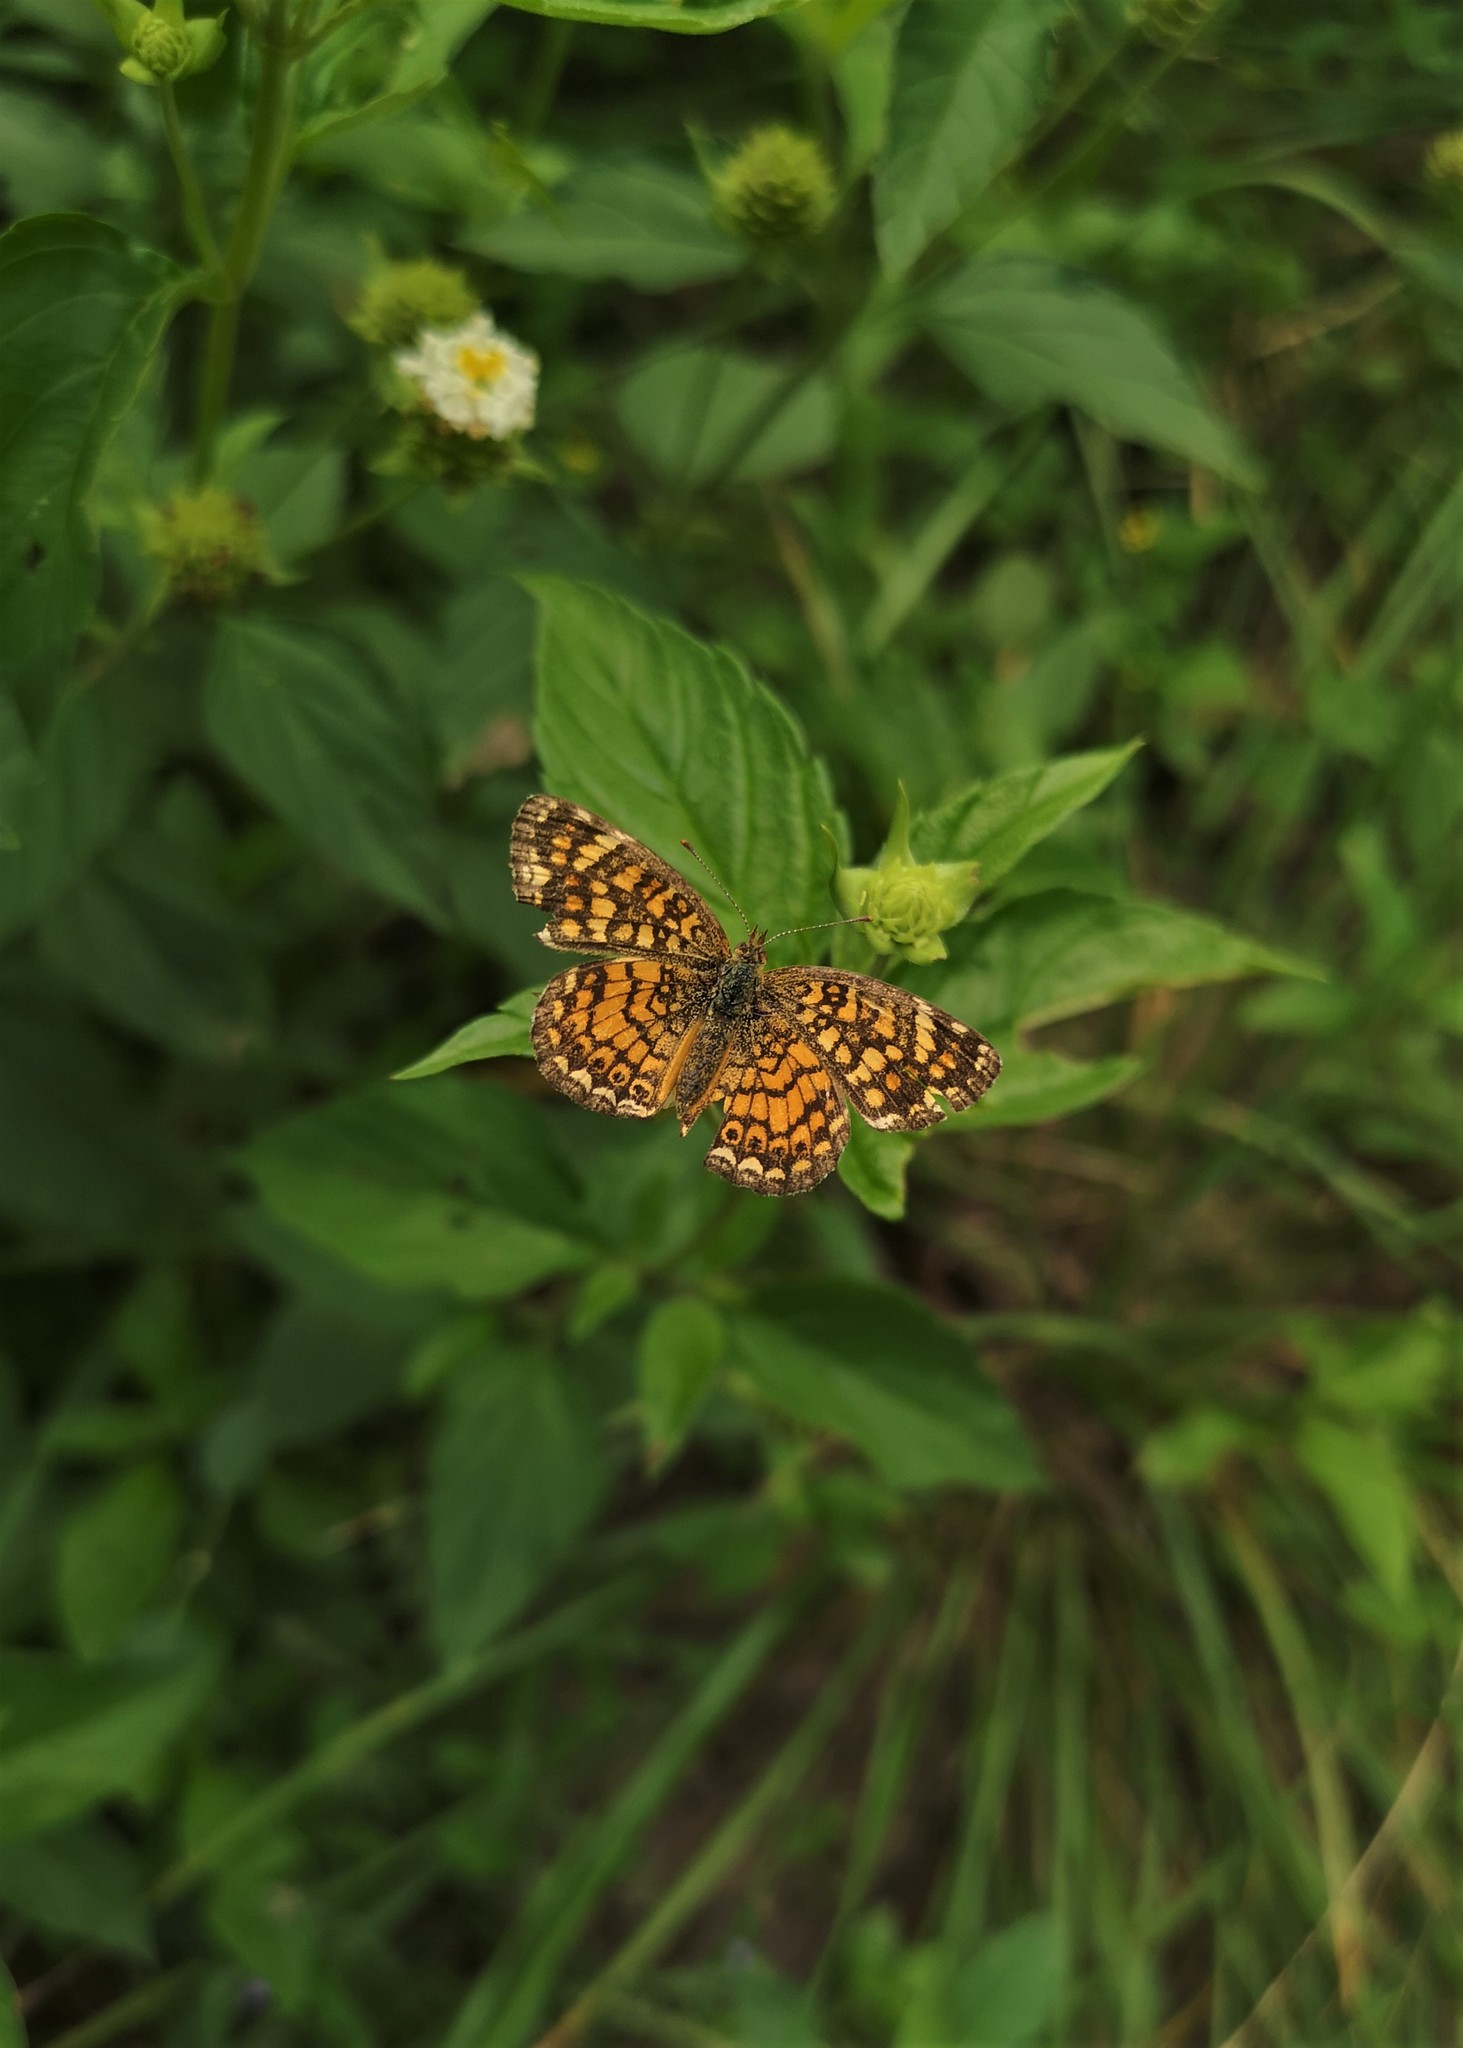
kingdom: Animalia
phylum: Arthropoda
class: Insecta
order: Lepidoptera
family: Nymphalidae
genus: Phyciodes
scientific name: Phyciodes vesta
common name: Vesta crescent
